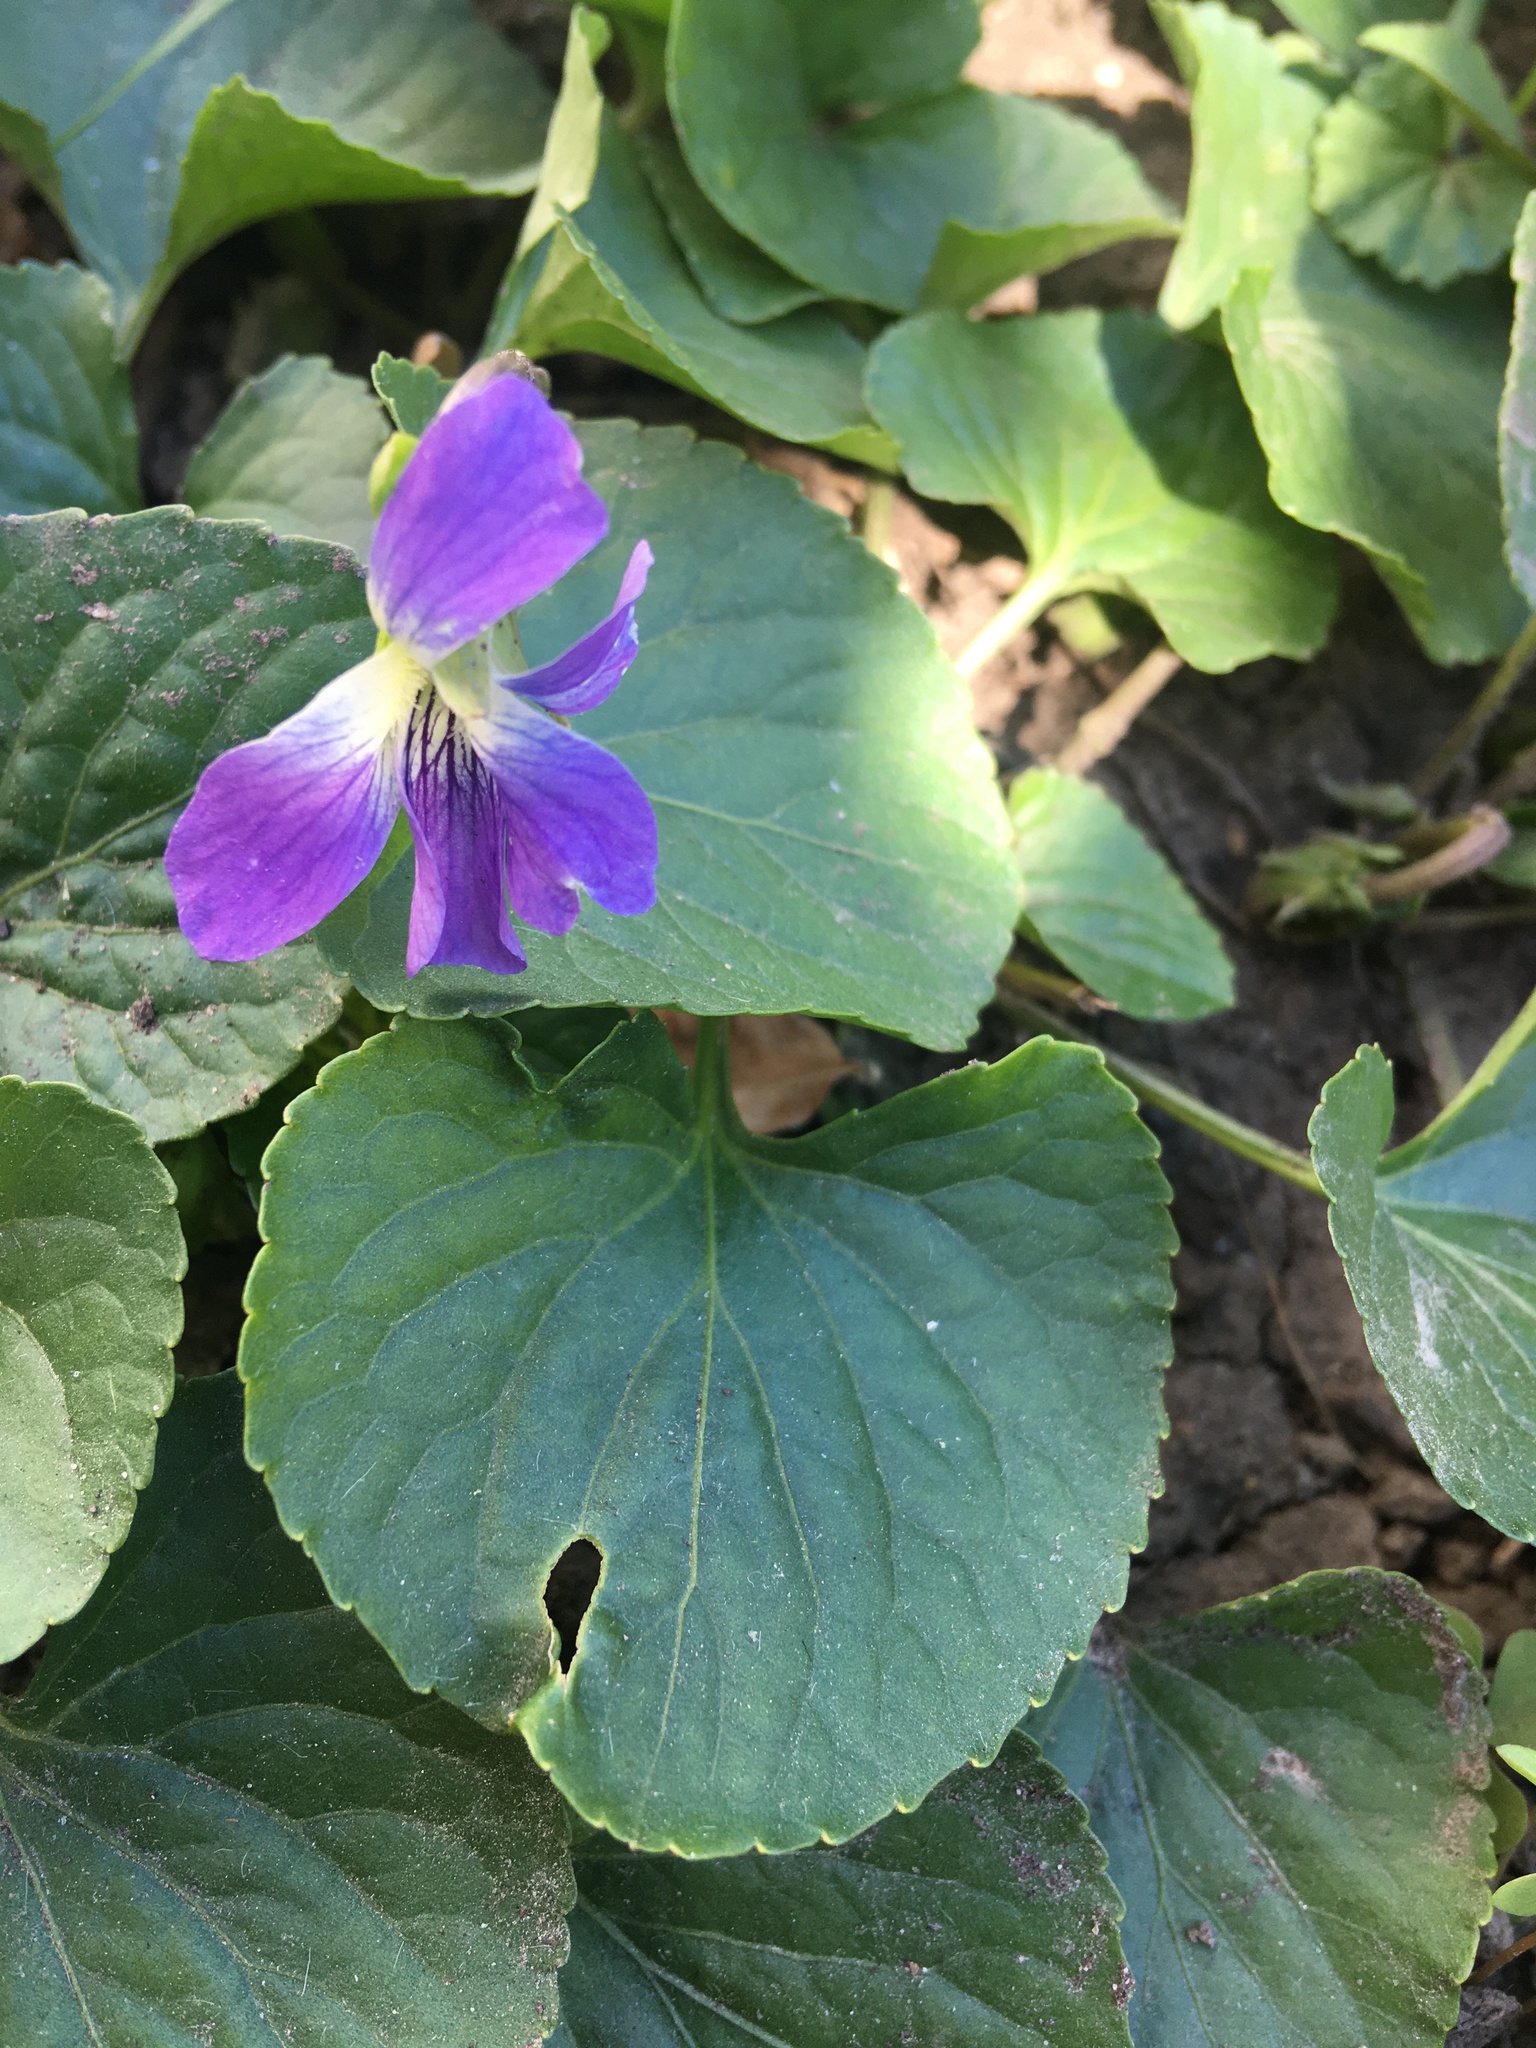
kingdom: Plantae
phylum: Tracheophyta
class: Magnoliopsida
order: Malpighiales
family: Violaceae
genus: Viola
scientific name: Viola sororia
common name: Dooryard violet
